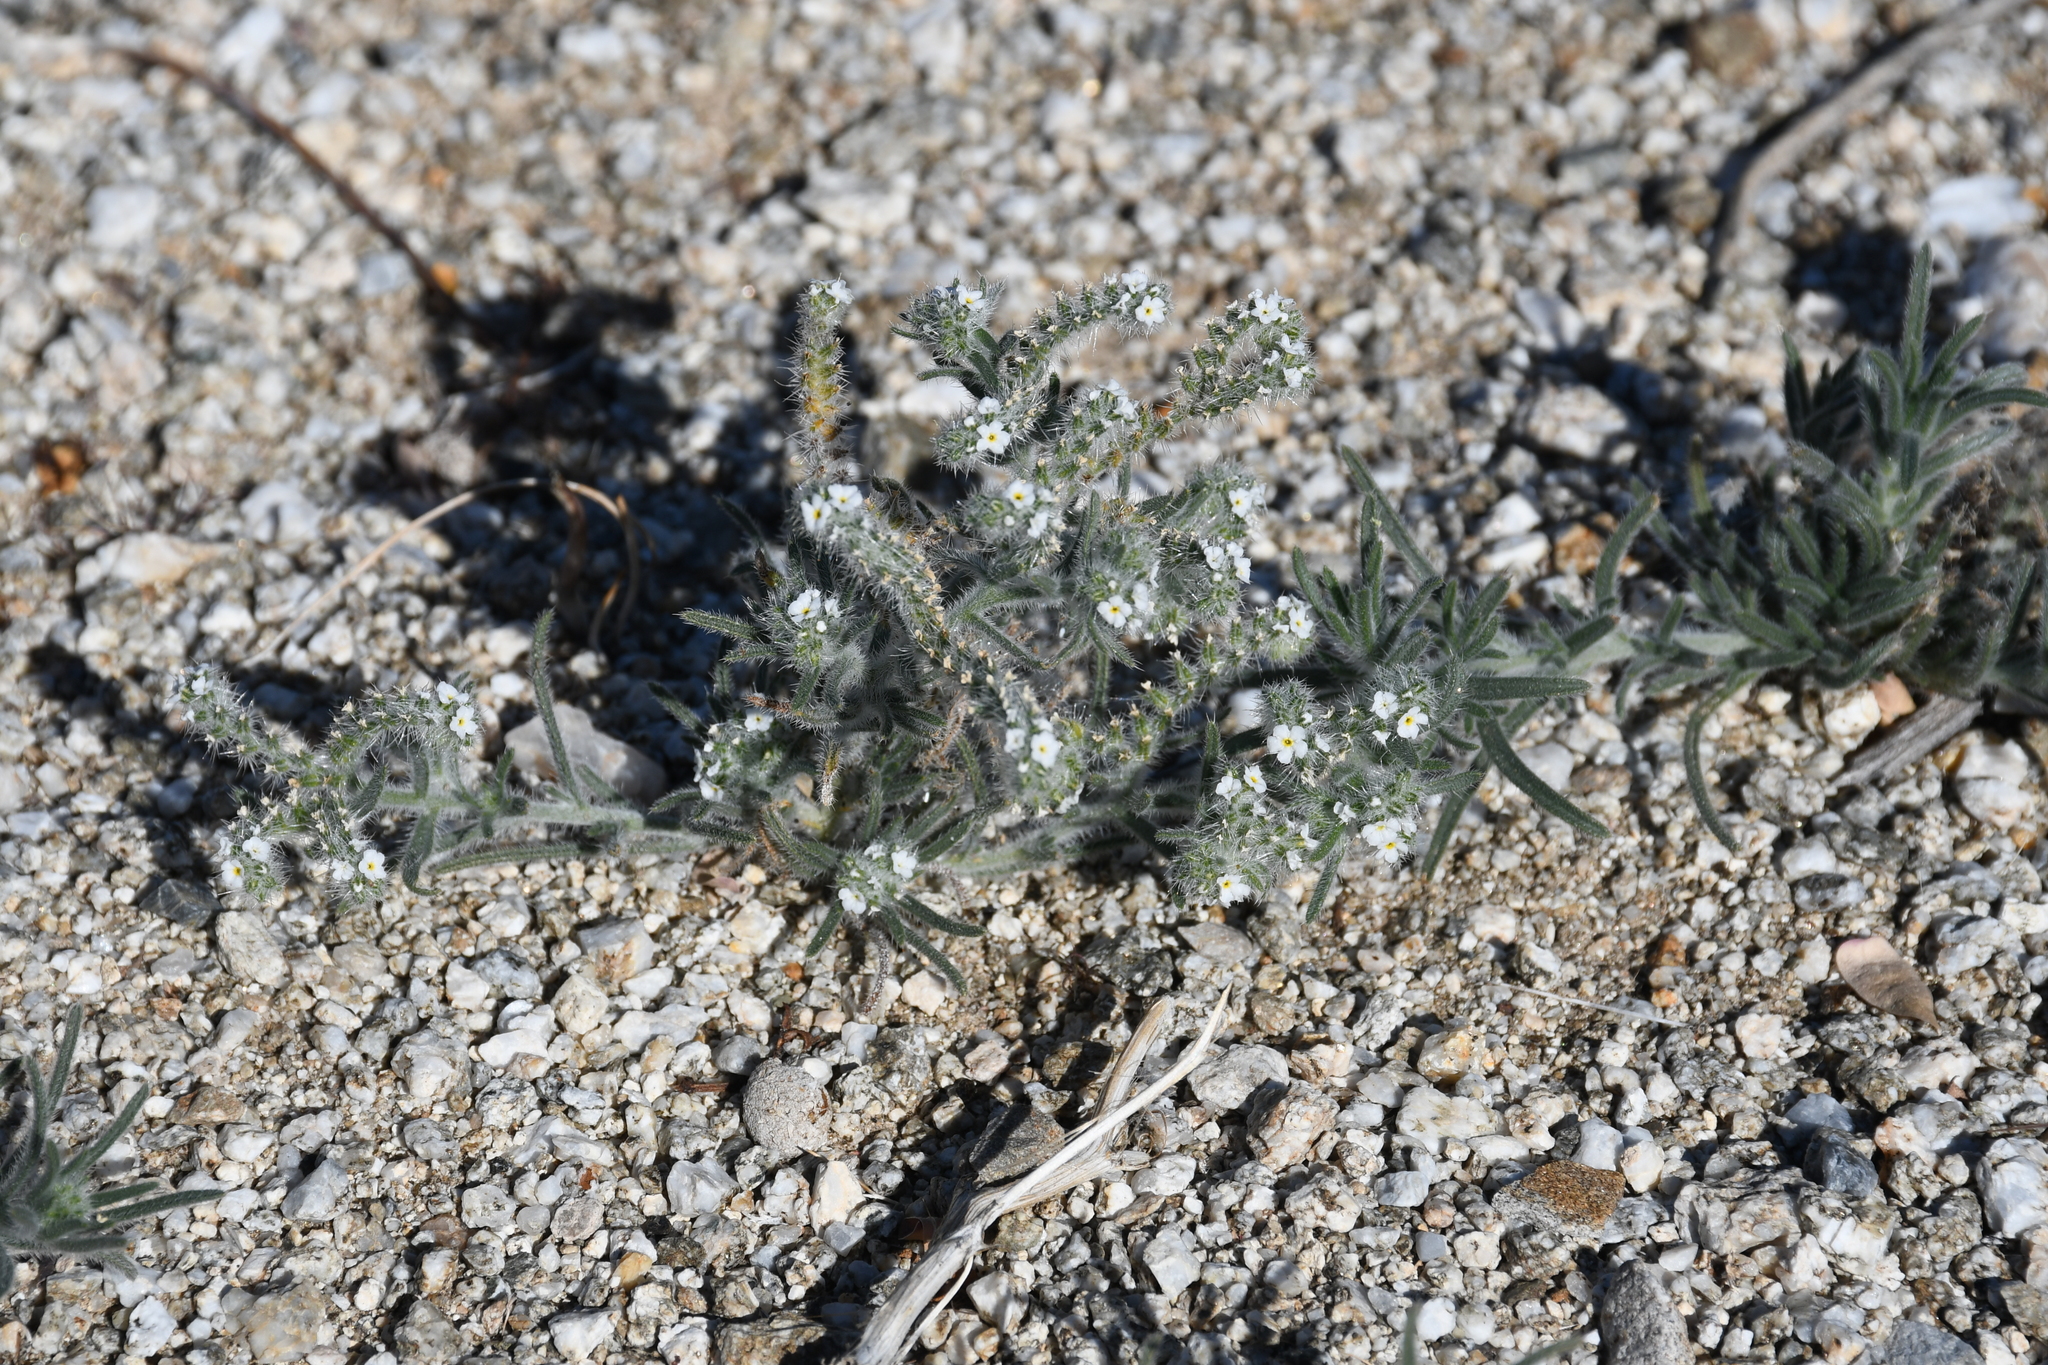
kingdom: Plantae
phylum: Tracheophyta
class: Magnoliopsida
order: Boraginales
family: Boraginaceae
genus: Johnstonella
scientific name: Johnstonella angustifolia
